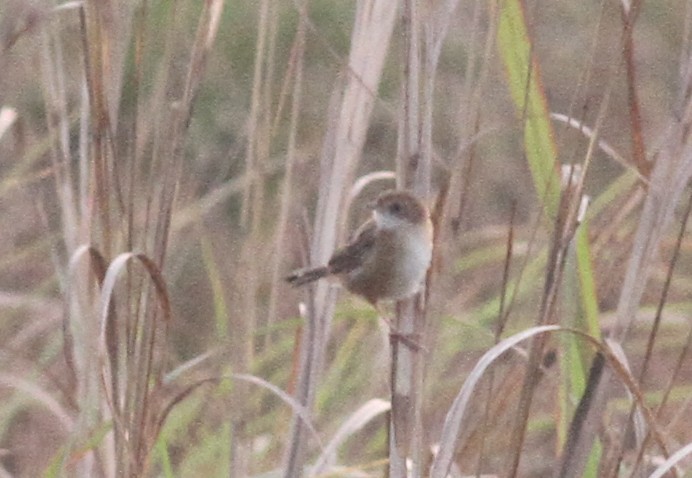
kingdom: Animalia
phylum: Chordata
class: Aves
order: Passeriformes
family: Cisticolidae
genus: Cisticola
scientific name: Cisticola exilis
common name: Golden-headed cisticola
